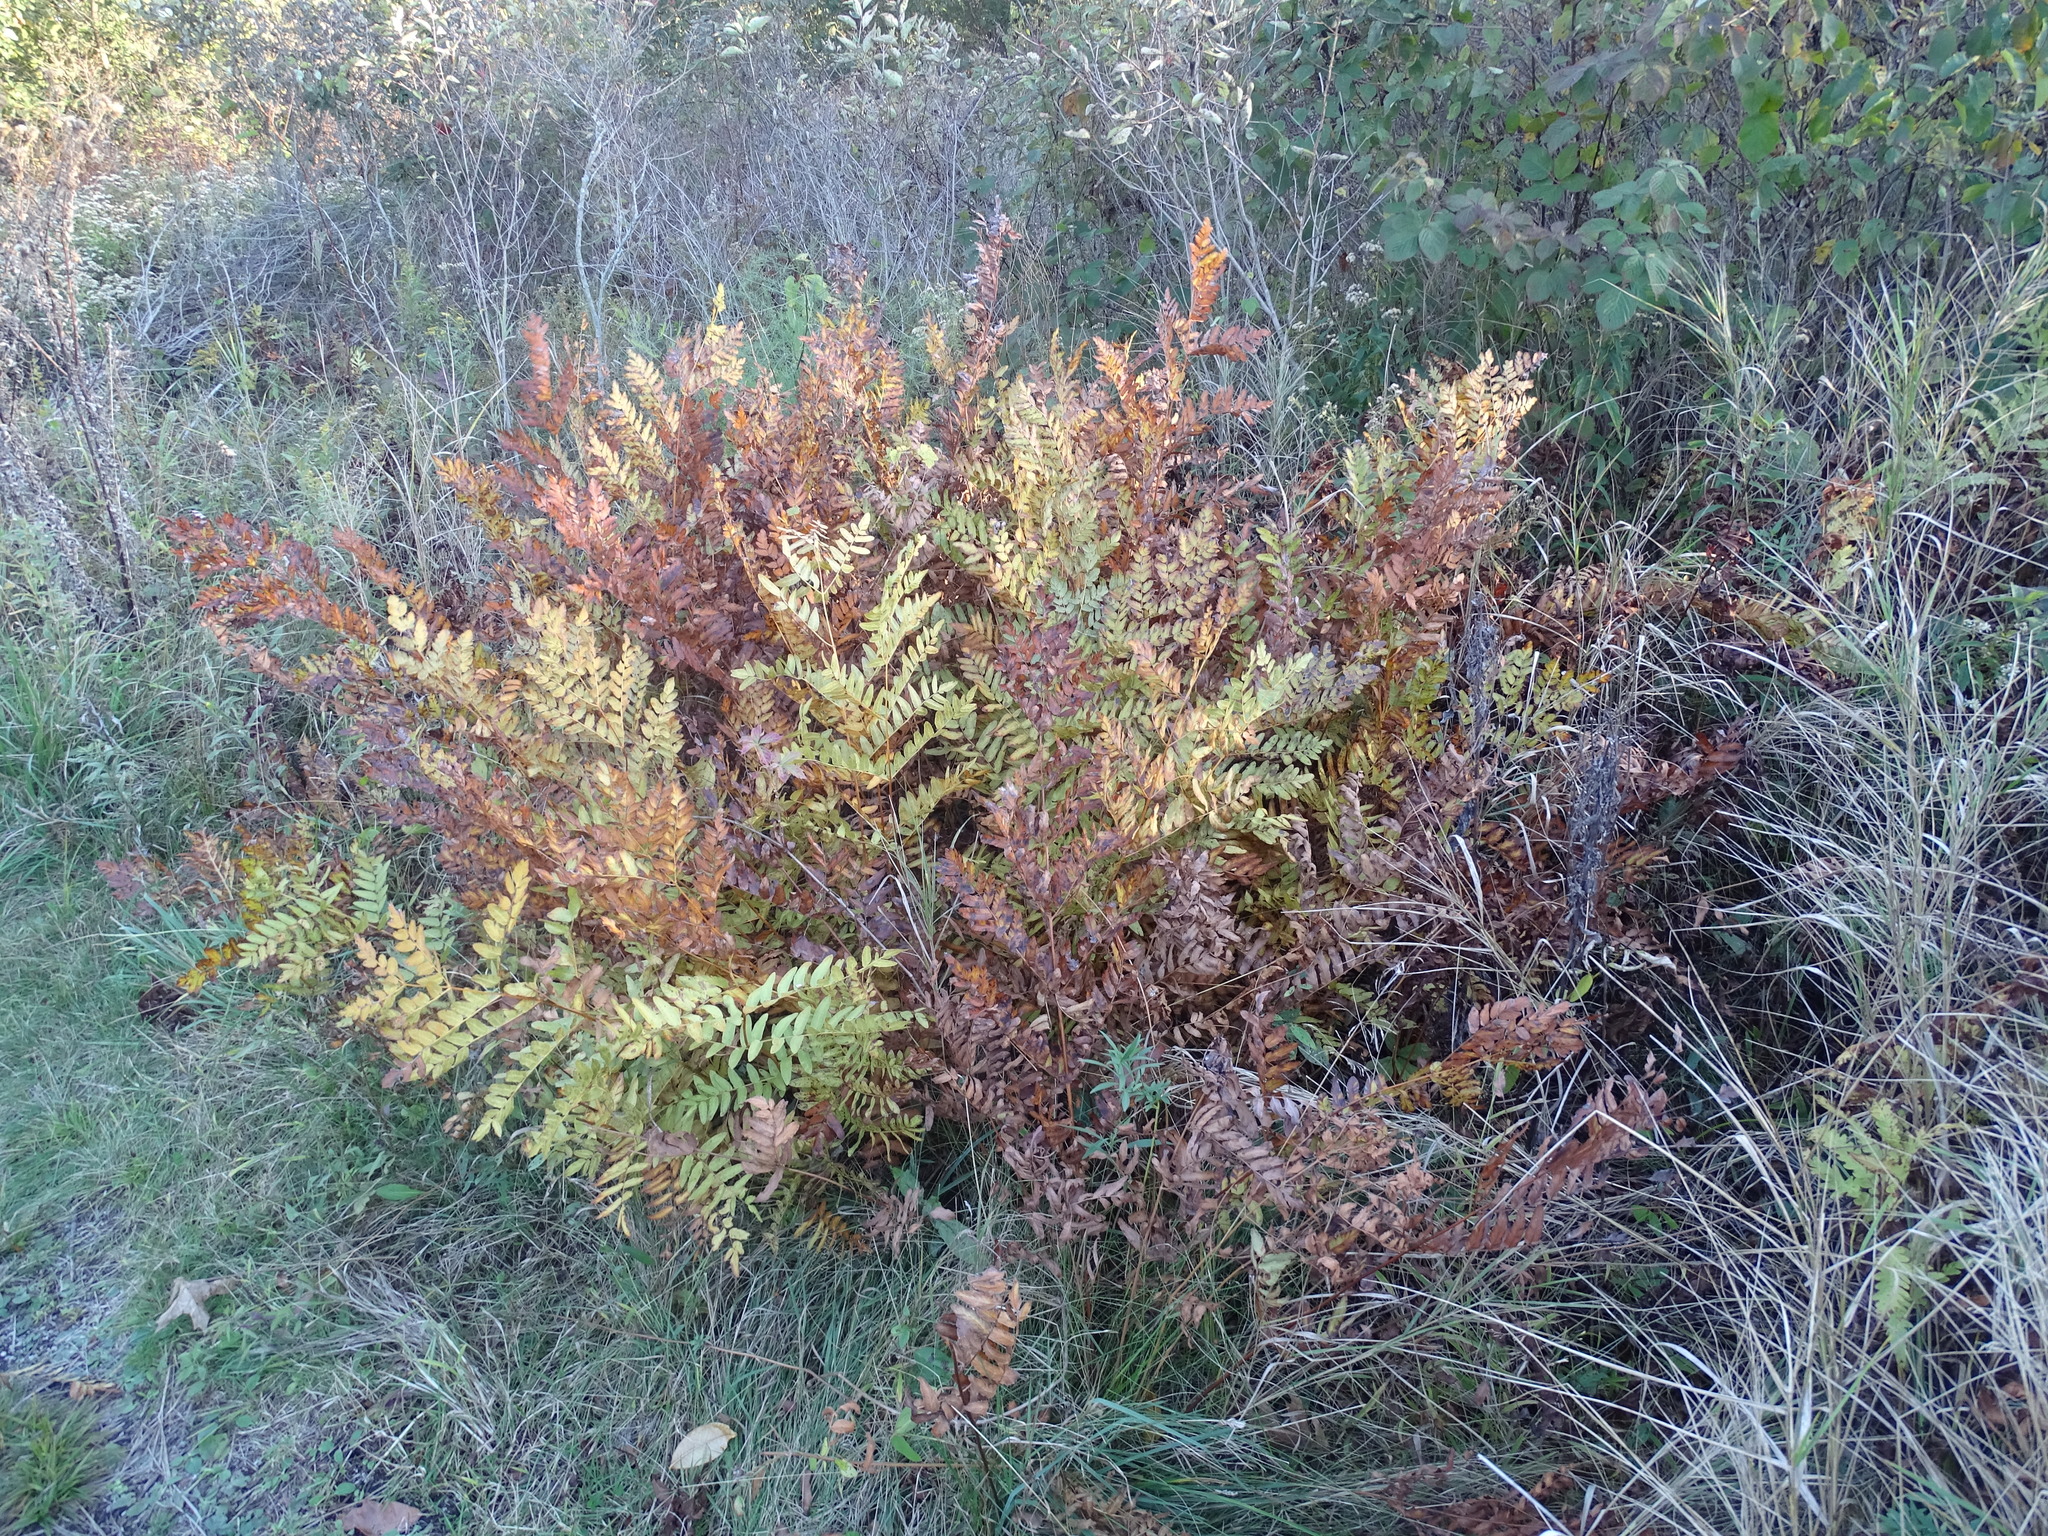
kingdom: Plantae
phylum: Tracheophyta
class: Polypodiopsida
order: Osmundales
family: Osmundaceae
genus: Osmunda
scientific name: Osmunda spectabilis
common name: American royal fern
